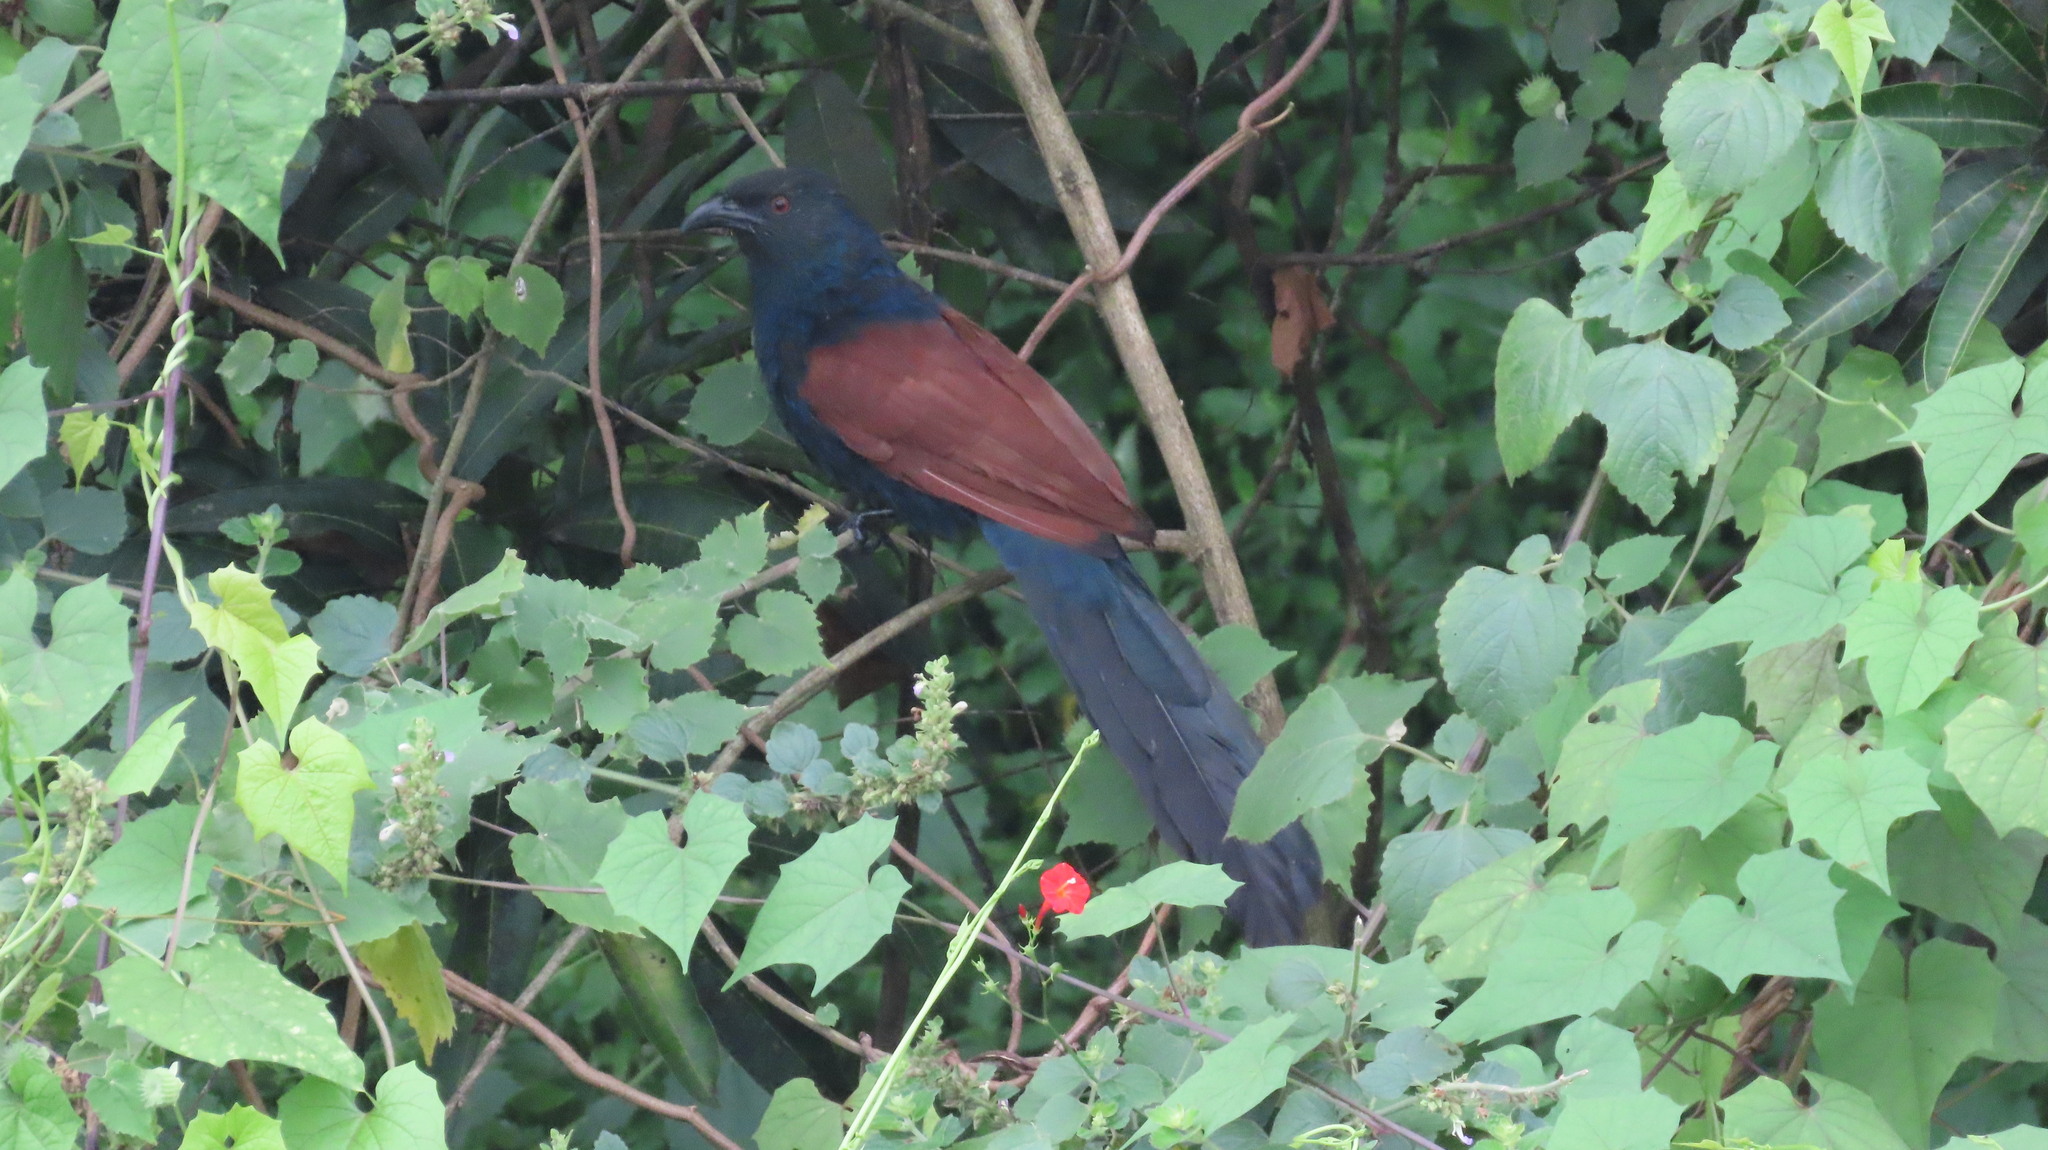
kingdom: Animalia
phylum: Chordata
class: Aves
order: Cuculiformes
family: Cuculidae
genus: Centropus
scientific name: Centropus sinensis
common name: Greater coucal
